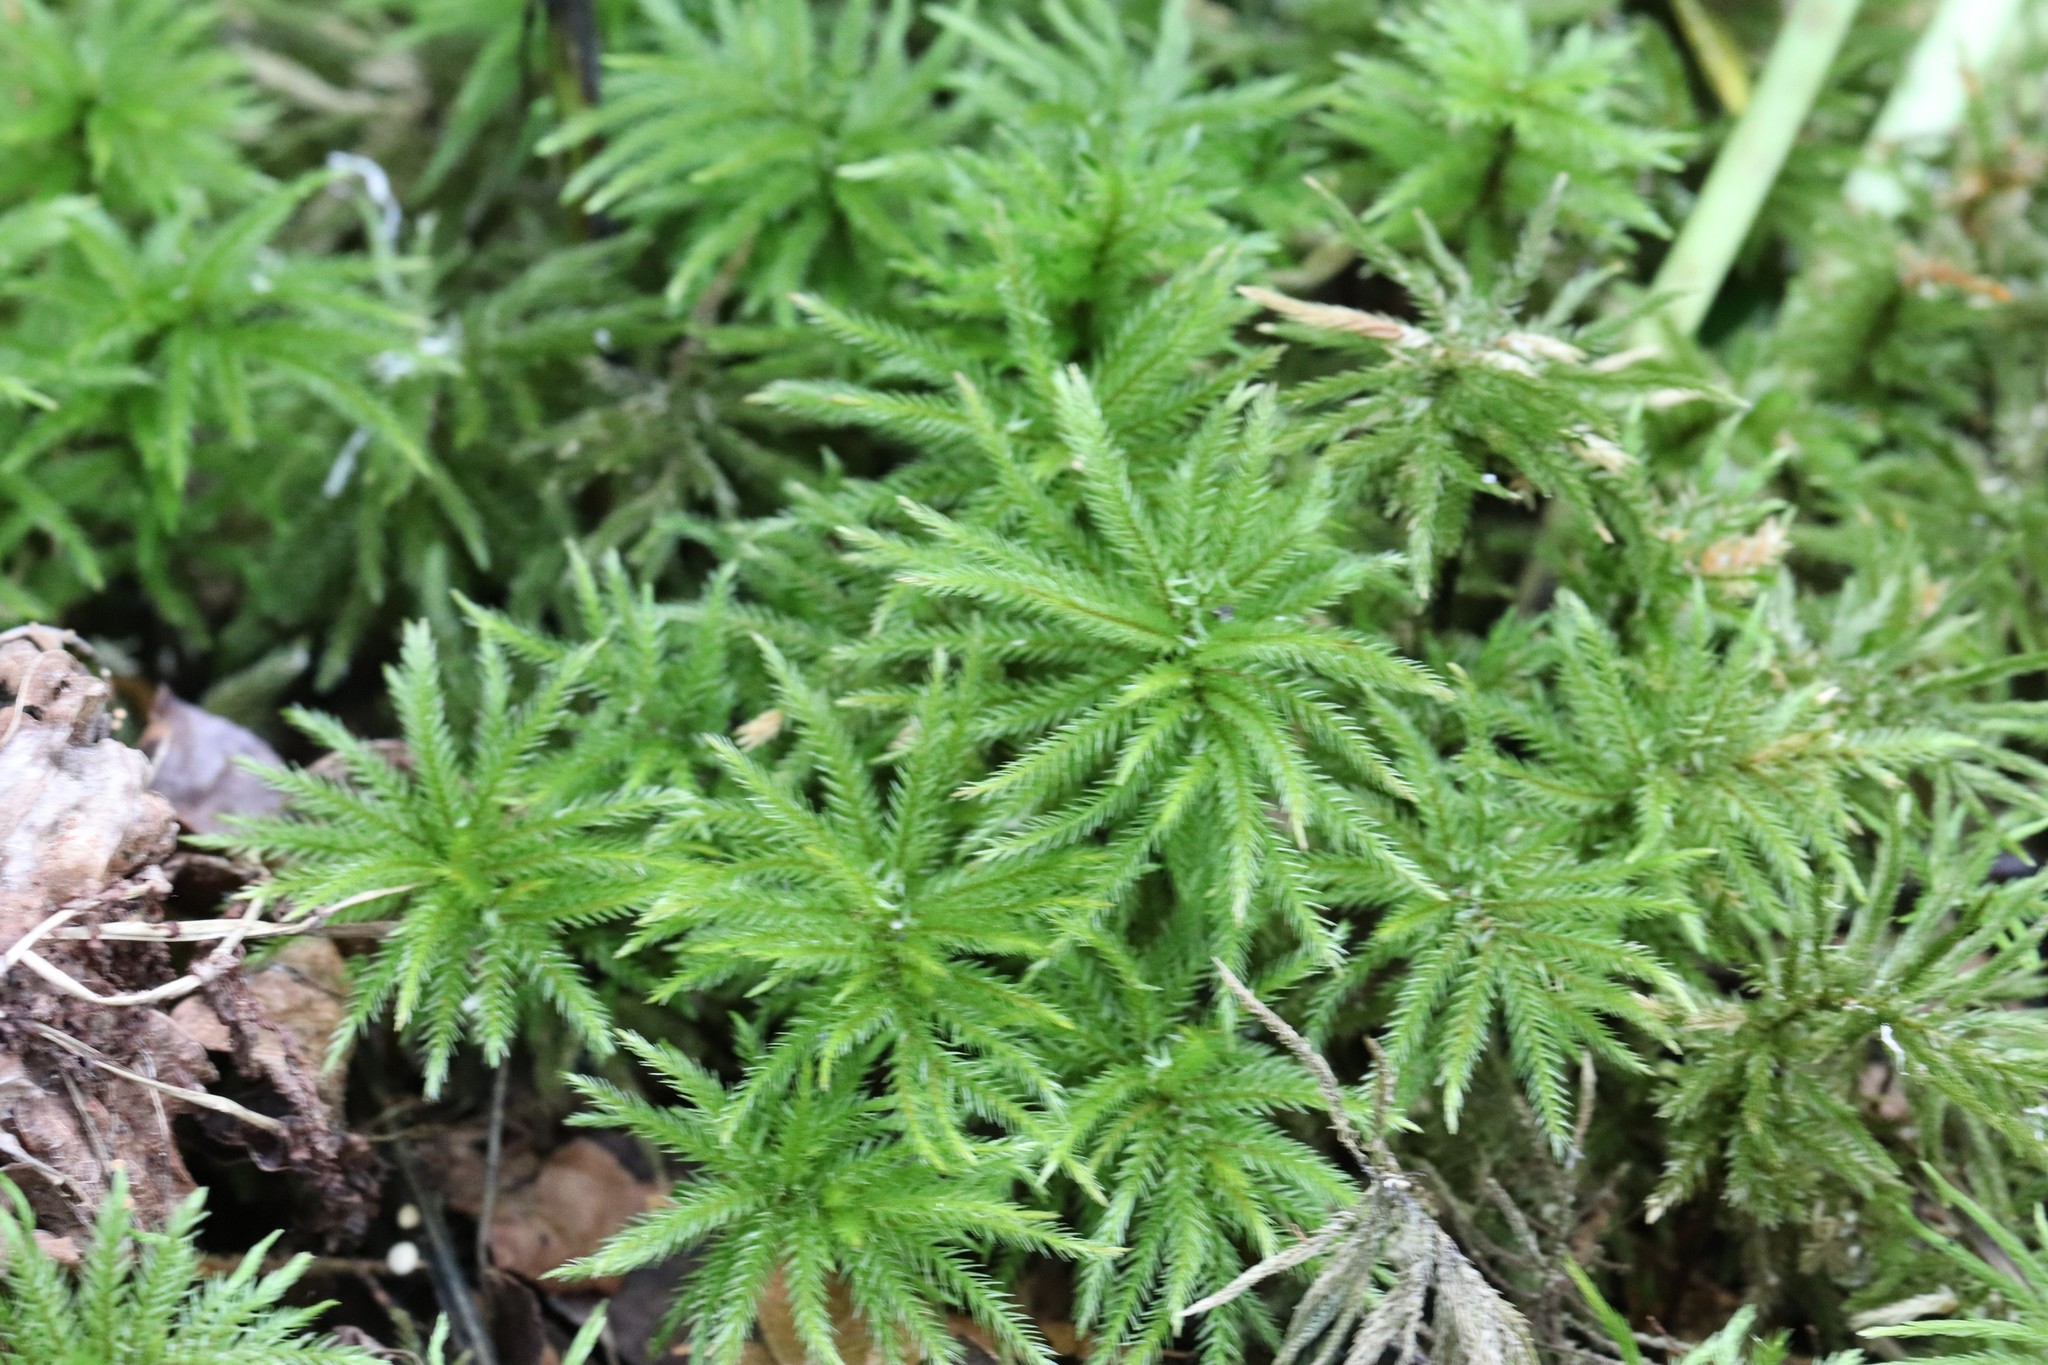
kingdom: Plantae
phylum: Bryophyta
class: Bryopsida
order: Hypnales
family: Climaciaceae
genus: Climacium
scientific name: Climacium japonicum
